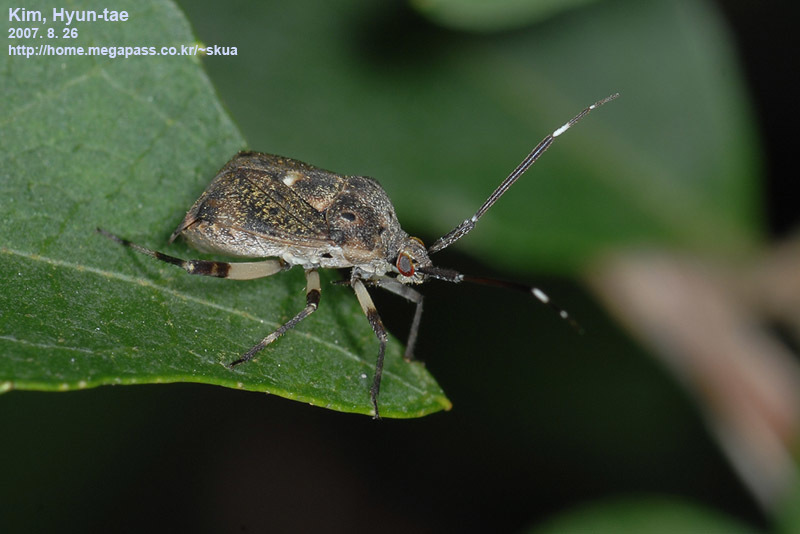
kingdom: Animalia
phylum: Arthropoda
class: Insecta
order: Hemiptera
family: Miridae
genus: Eurystylus
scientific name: Eurystylus coelestialium
